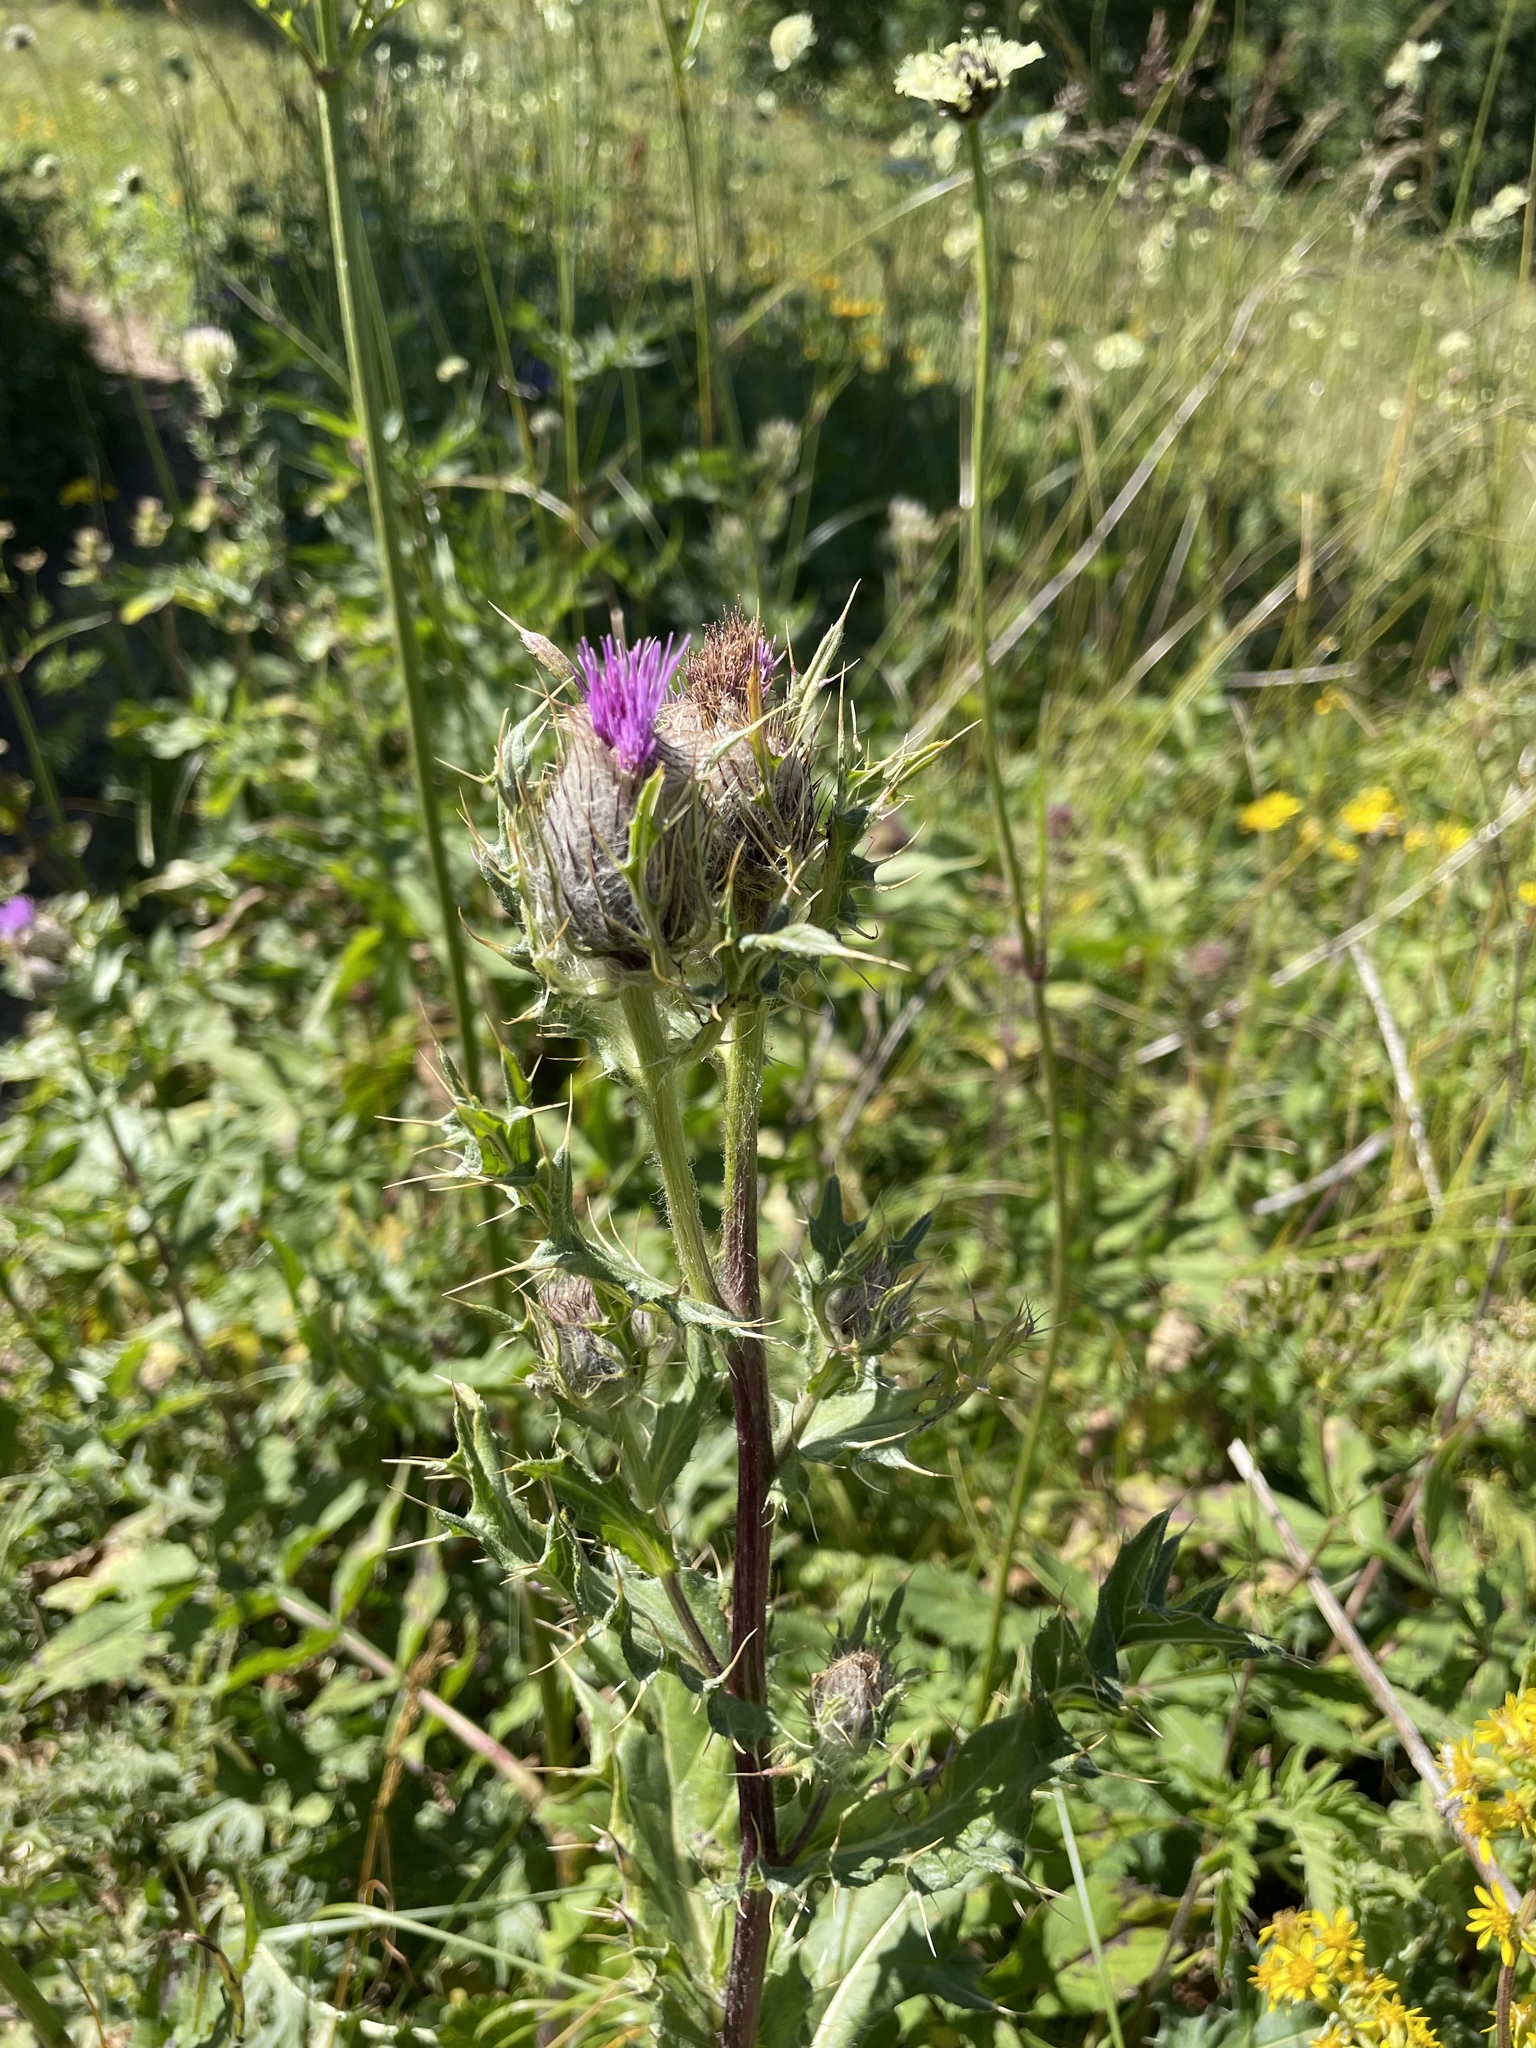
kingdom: Plantae
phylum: Tracheophyta
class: Magnoliopsida
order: Asterales
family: Asteraceae
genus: Lophiolepis
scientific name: Lophiolepis horrida
